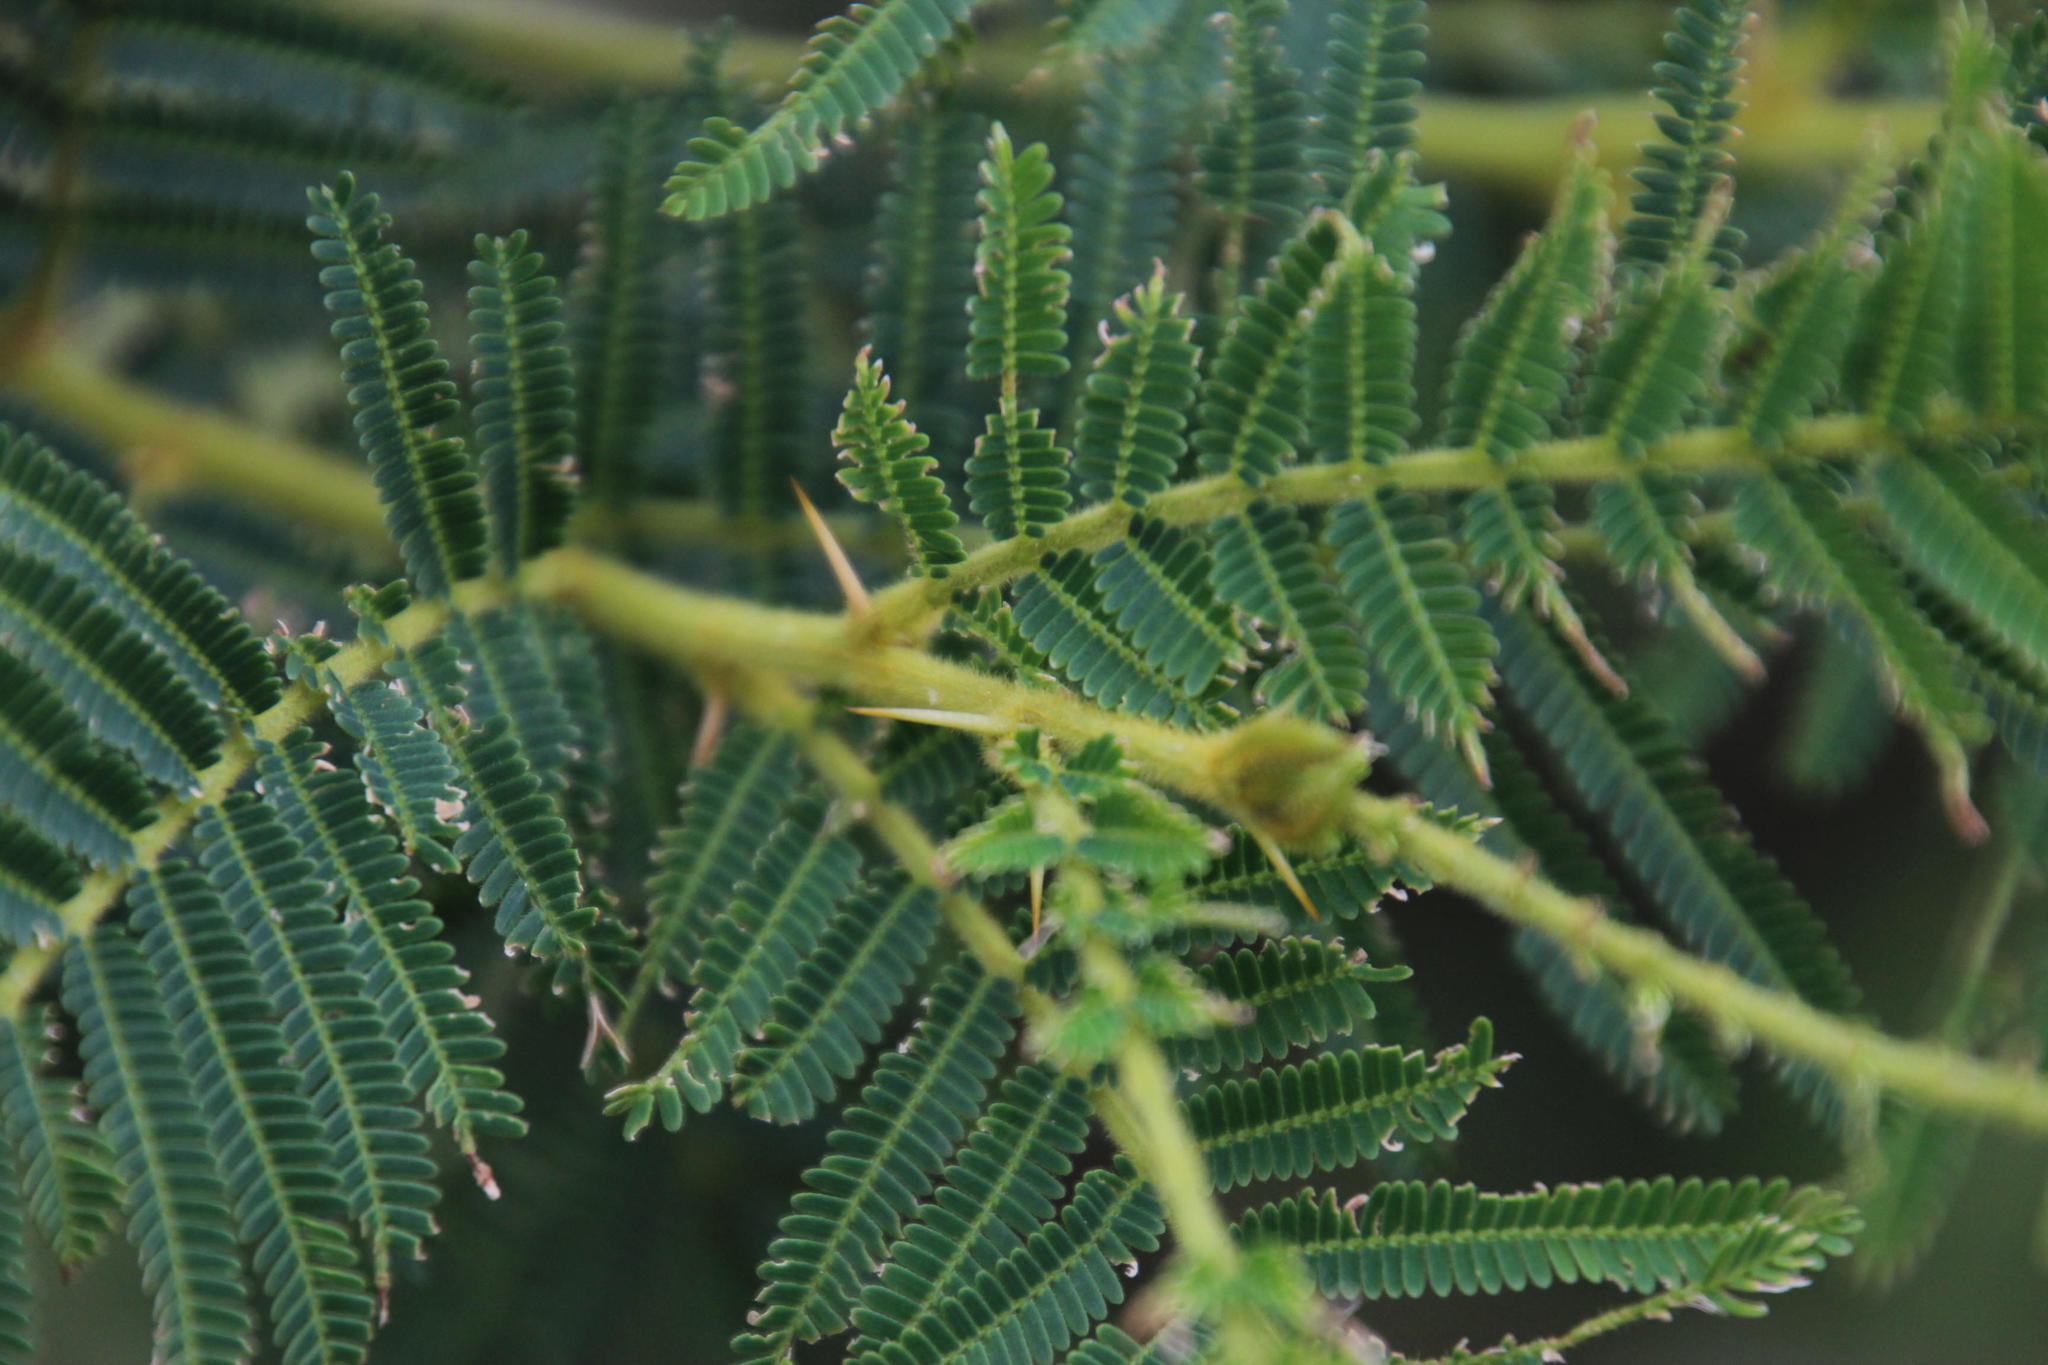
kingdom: Plantae
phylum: Tracheophyta
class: Magnoliopsida
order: Fabales
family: Fabaceae
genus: Vachellia
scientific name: Vachellia sieberiana
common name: Flat-topped thorn
